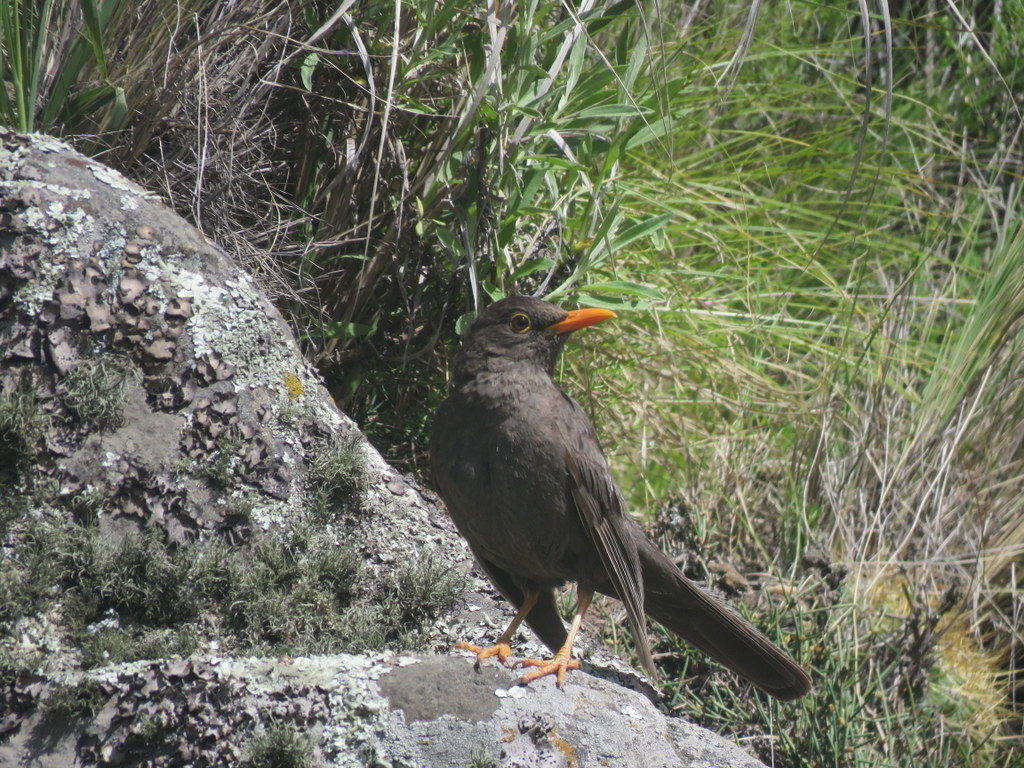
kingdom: Animalia
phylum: Chordata
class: Aves
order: Passeriformes
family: Turdidae
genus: Turdus
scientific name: Turdus chiguanco
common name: Chiguanco thrush
